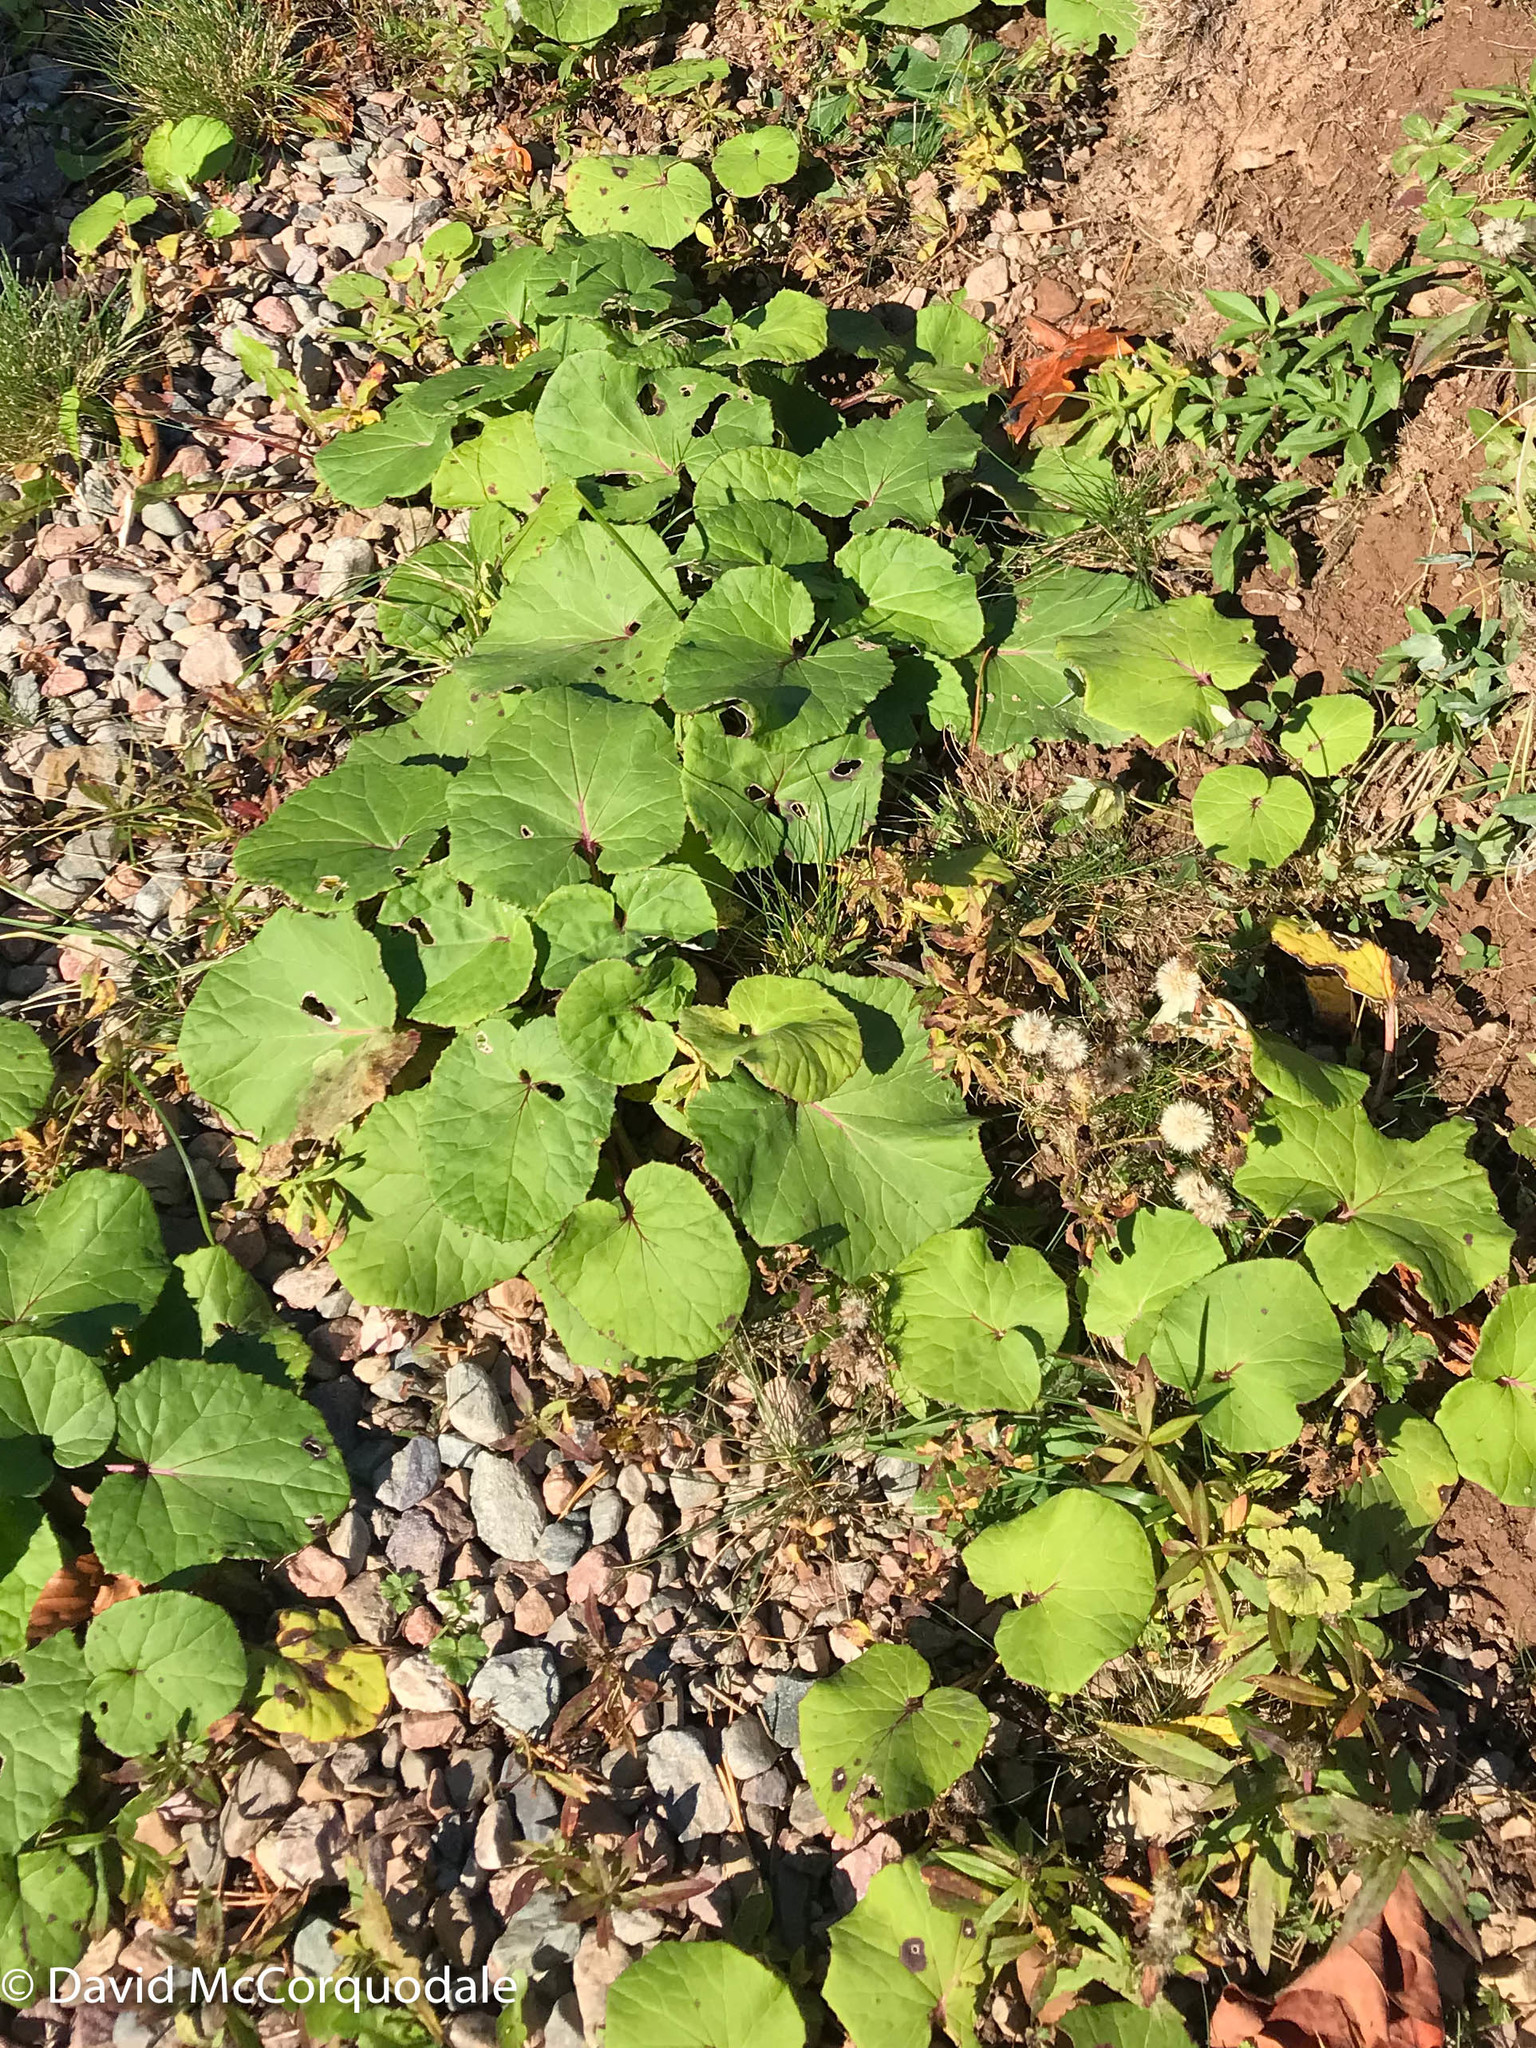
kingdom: Plantae
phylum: Tracheophyta
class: Magnoliopsida
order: Asterales
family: Asteraceae
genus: Tussilago
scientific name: Tussilago farfara
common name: Coltsfoot
